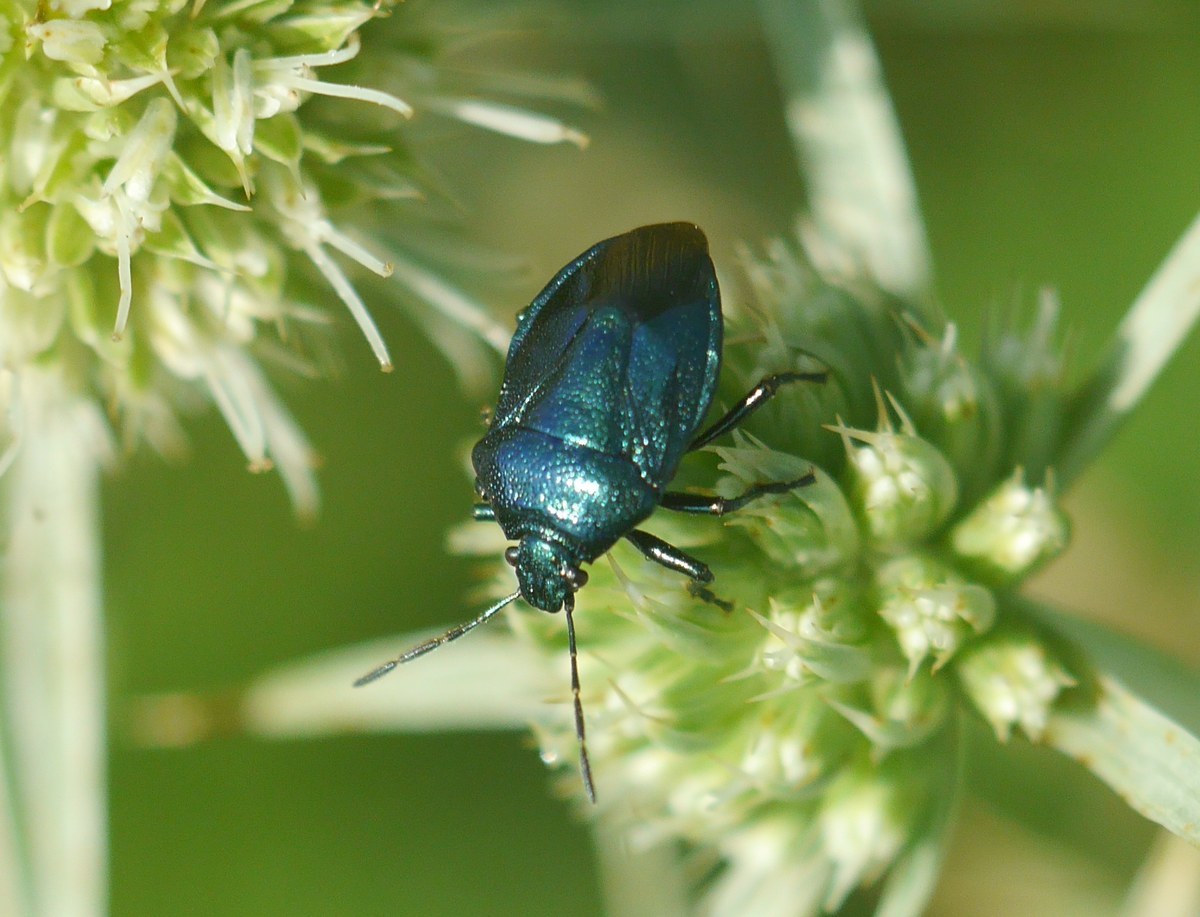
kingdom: Animalia
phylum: Arthropoda
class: Insecta
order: Hemiptera
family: Pentatomidae
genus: Zicrona
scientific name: Zicrona caerulea
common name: Blue shieldbug
